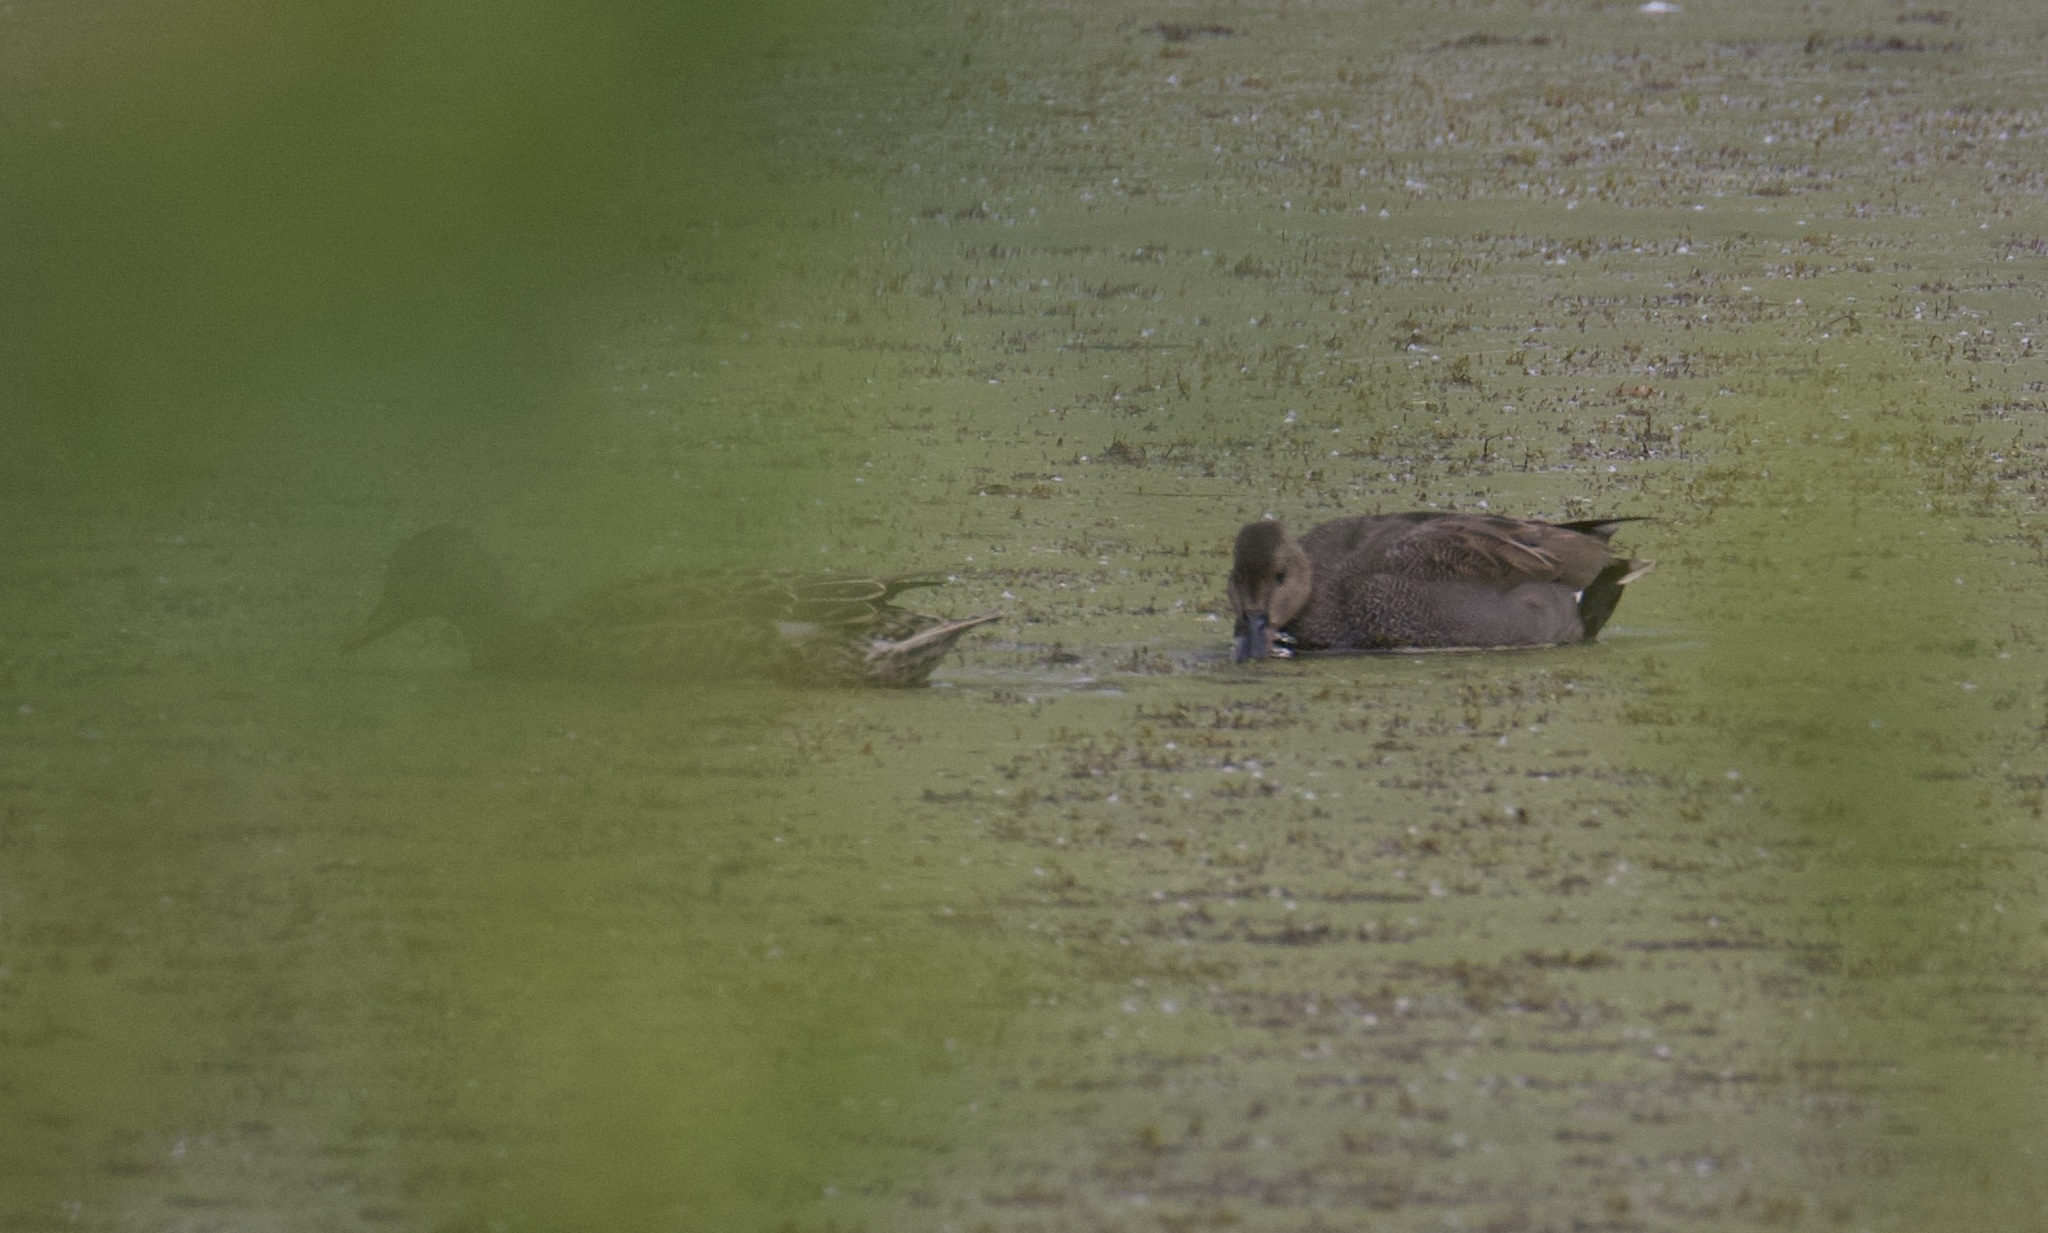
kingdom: Animalia
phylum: Chordata
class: Aves
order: Anseriformes
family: Anatidae
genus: Mareca
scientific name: Mareca strepera
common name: Gadwall
